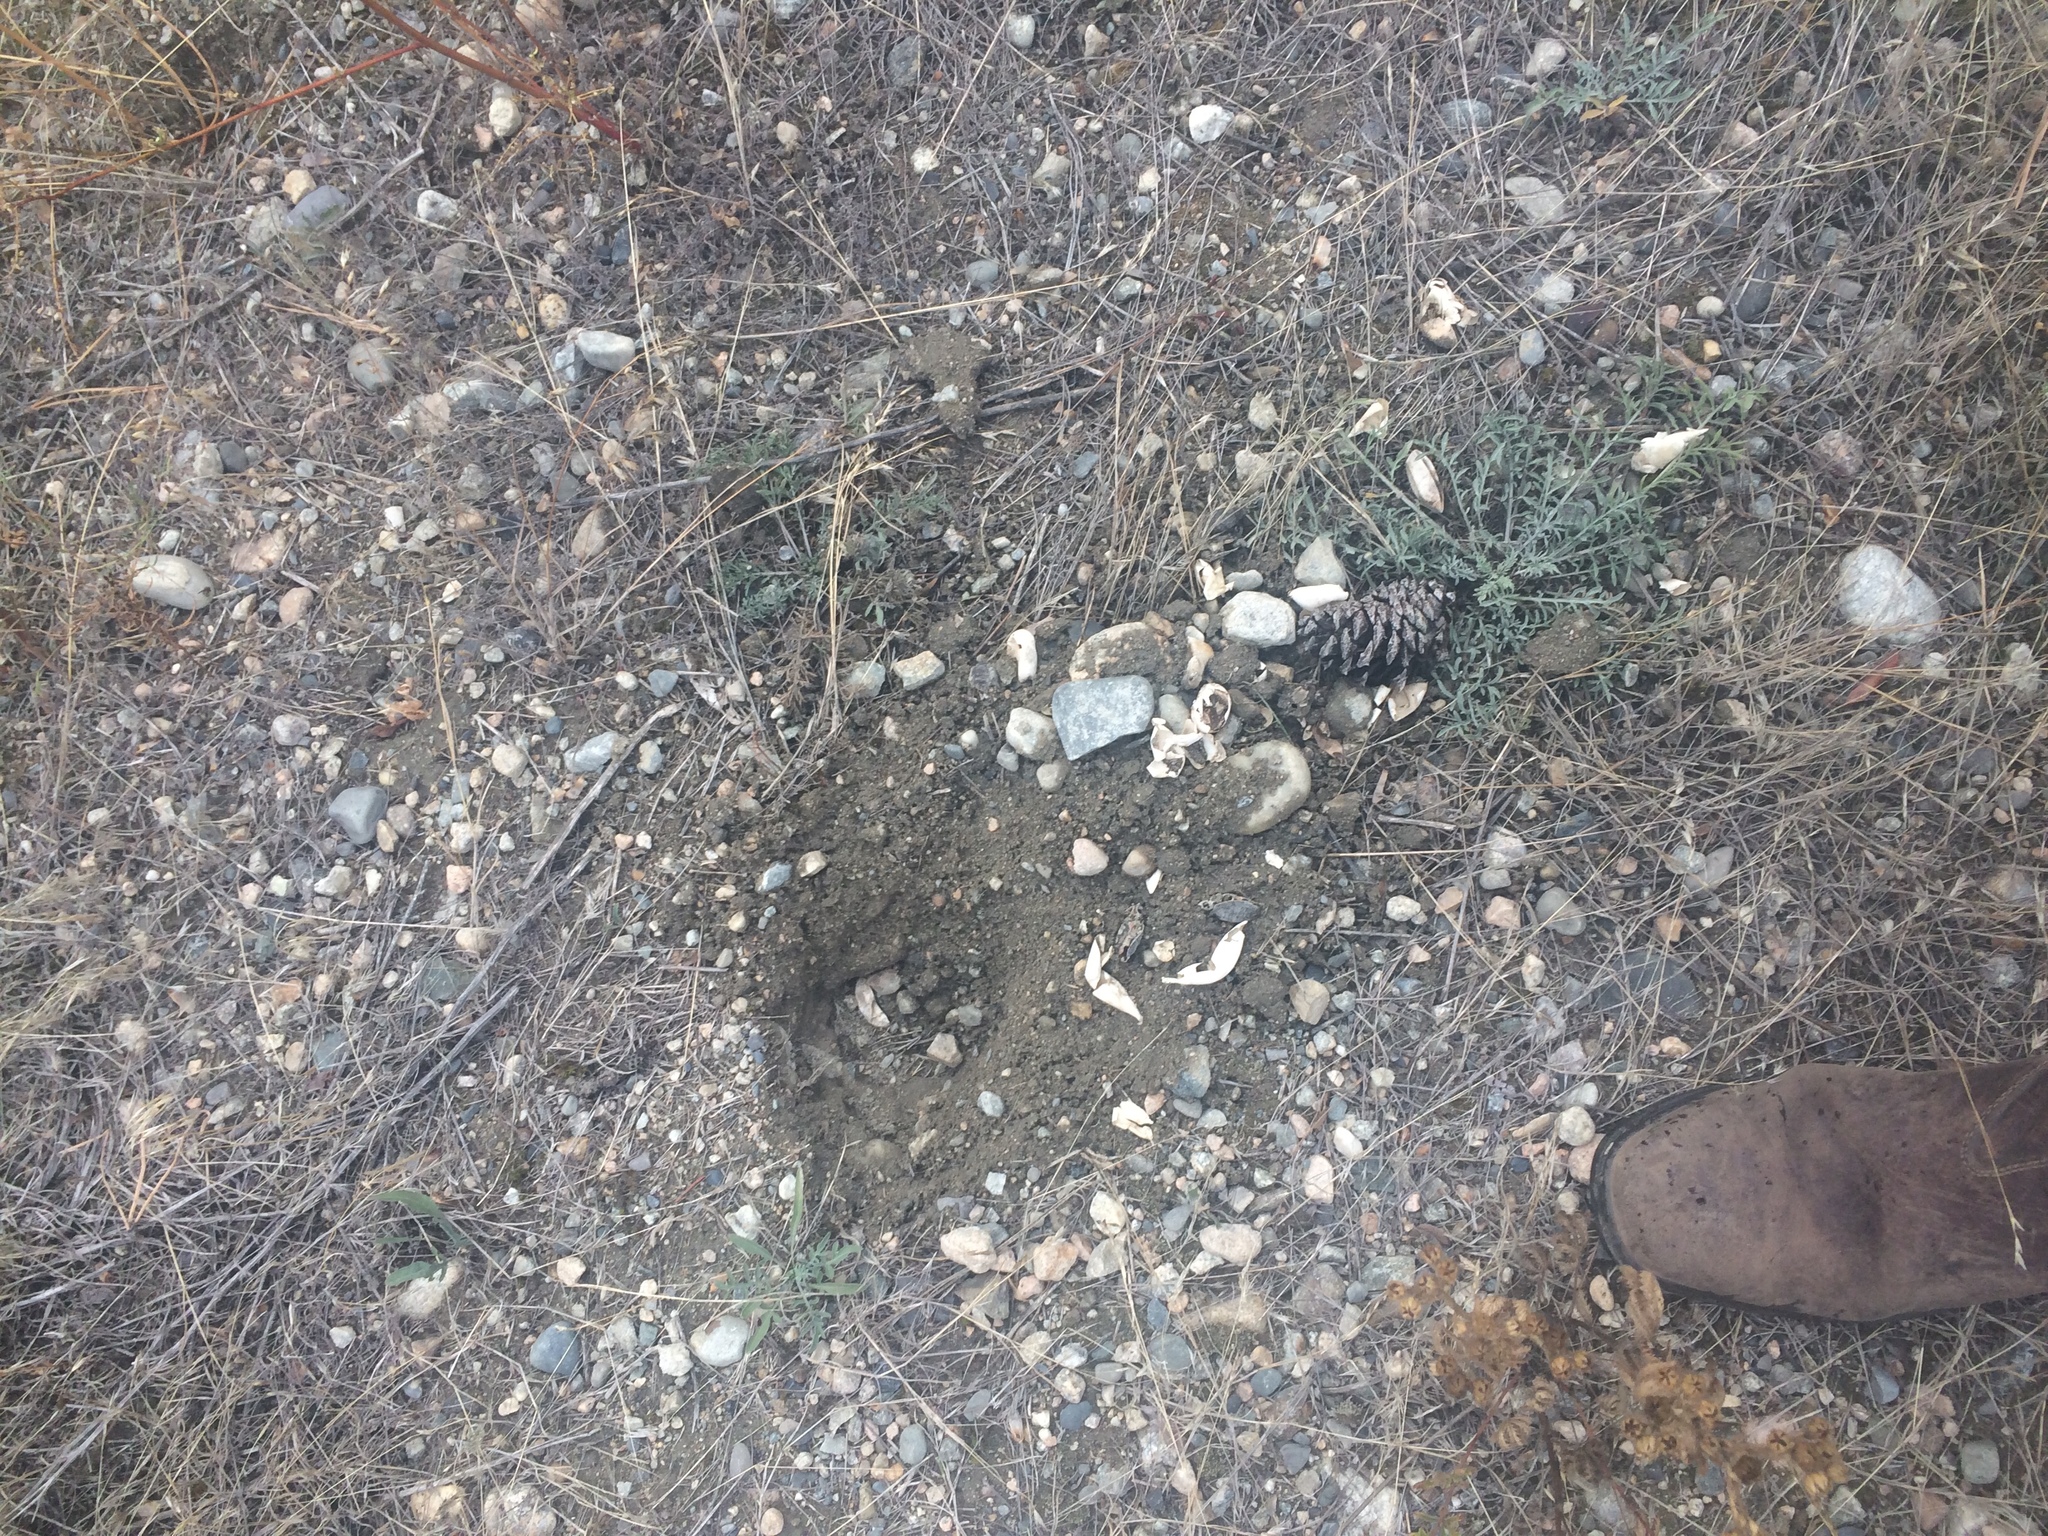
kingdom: Animalia
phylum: Chordata
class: Testudines
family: Emydidae
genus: Chrysemys
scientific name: Chrysemys picta
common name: Painted turtle
